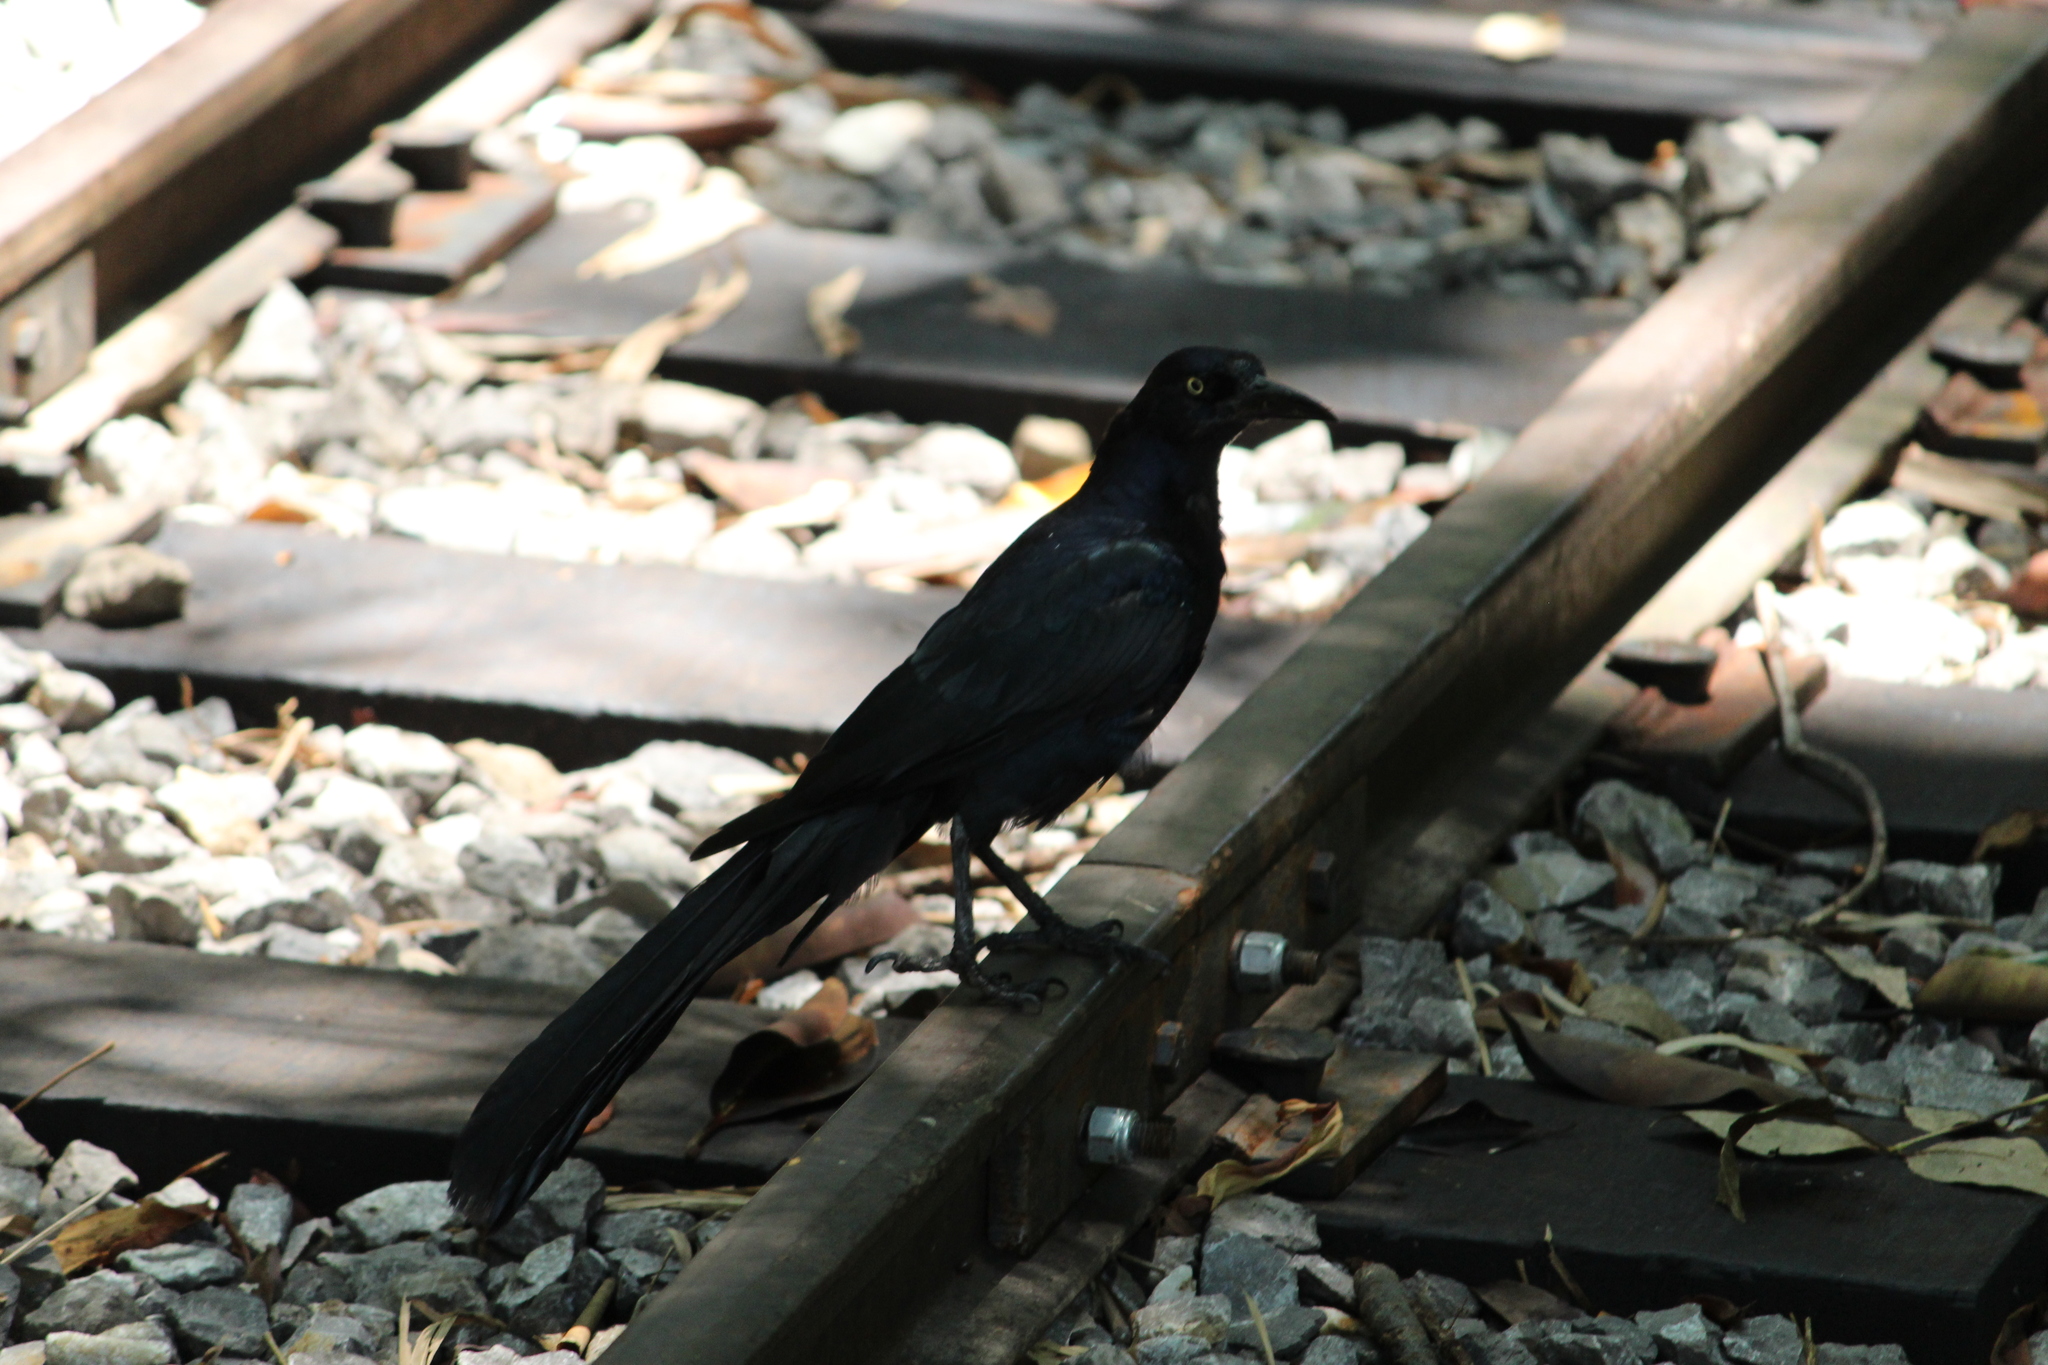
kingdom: Animalia
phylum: Chordata
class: Aves
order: Passeriformes
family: Icteridae
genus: Quiscalus
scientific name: Quiscalus mexicanus
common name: Great-tailed grackle
